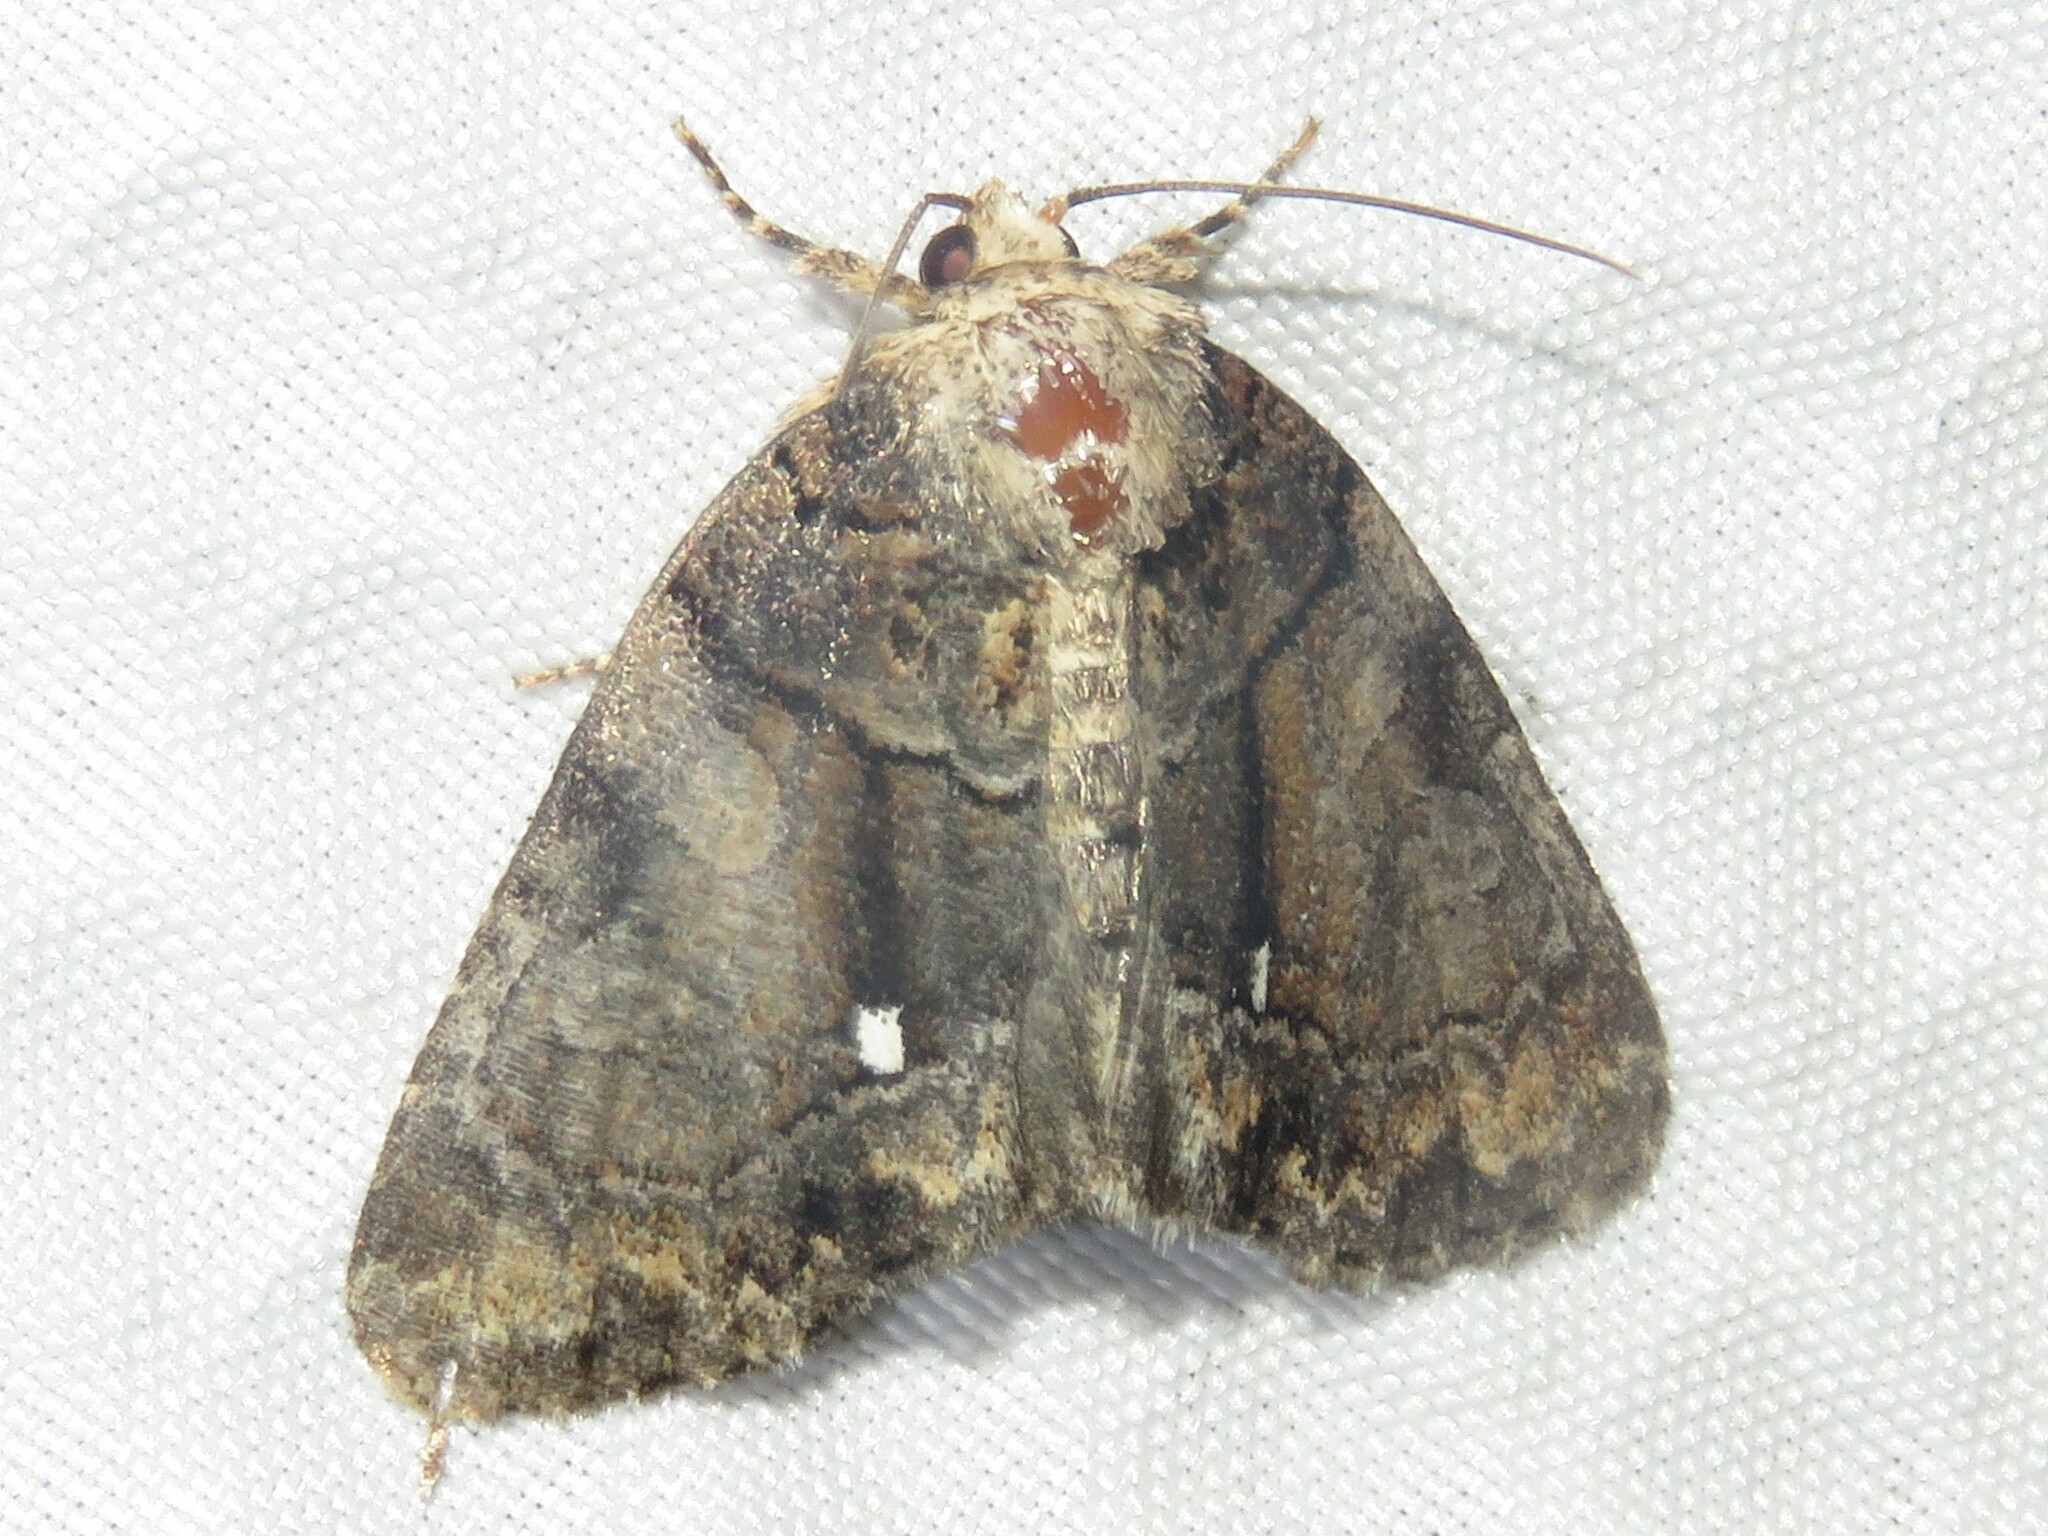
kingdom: Animalia
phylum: Arthropoda
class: Insecta
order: Lepidoptera
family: Noctuidae
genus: Chytonix
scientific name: Chytonix palliatricula
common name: Cloaked marvel
